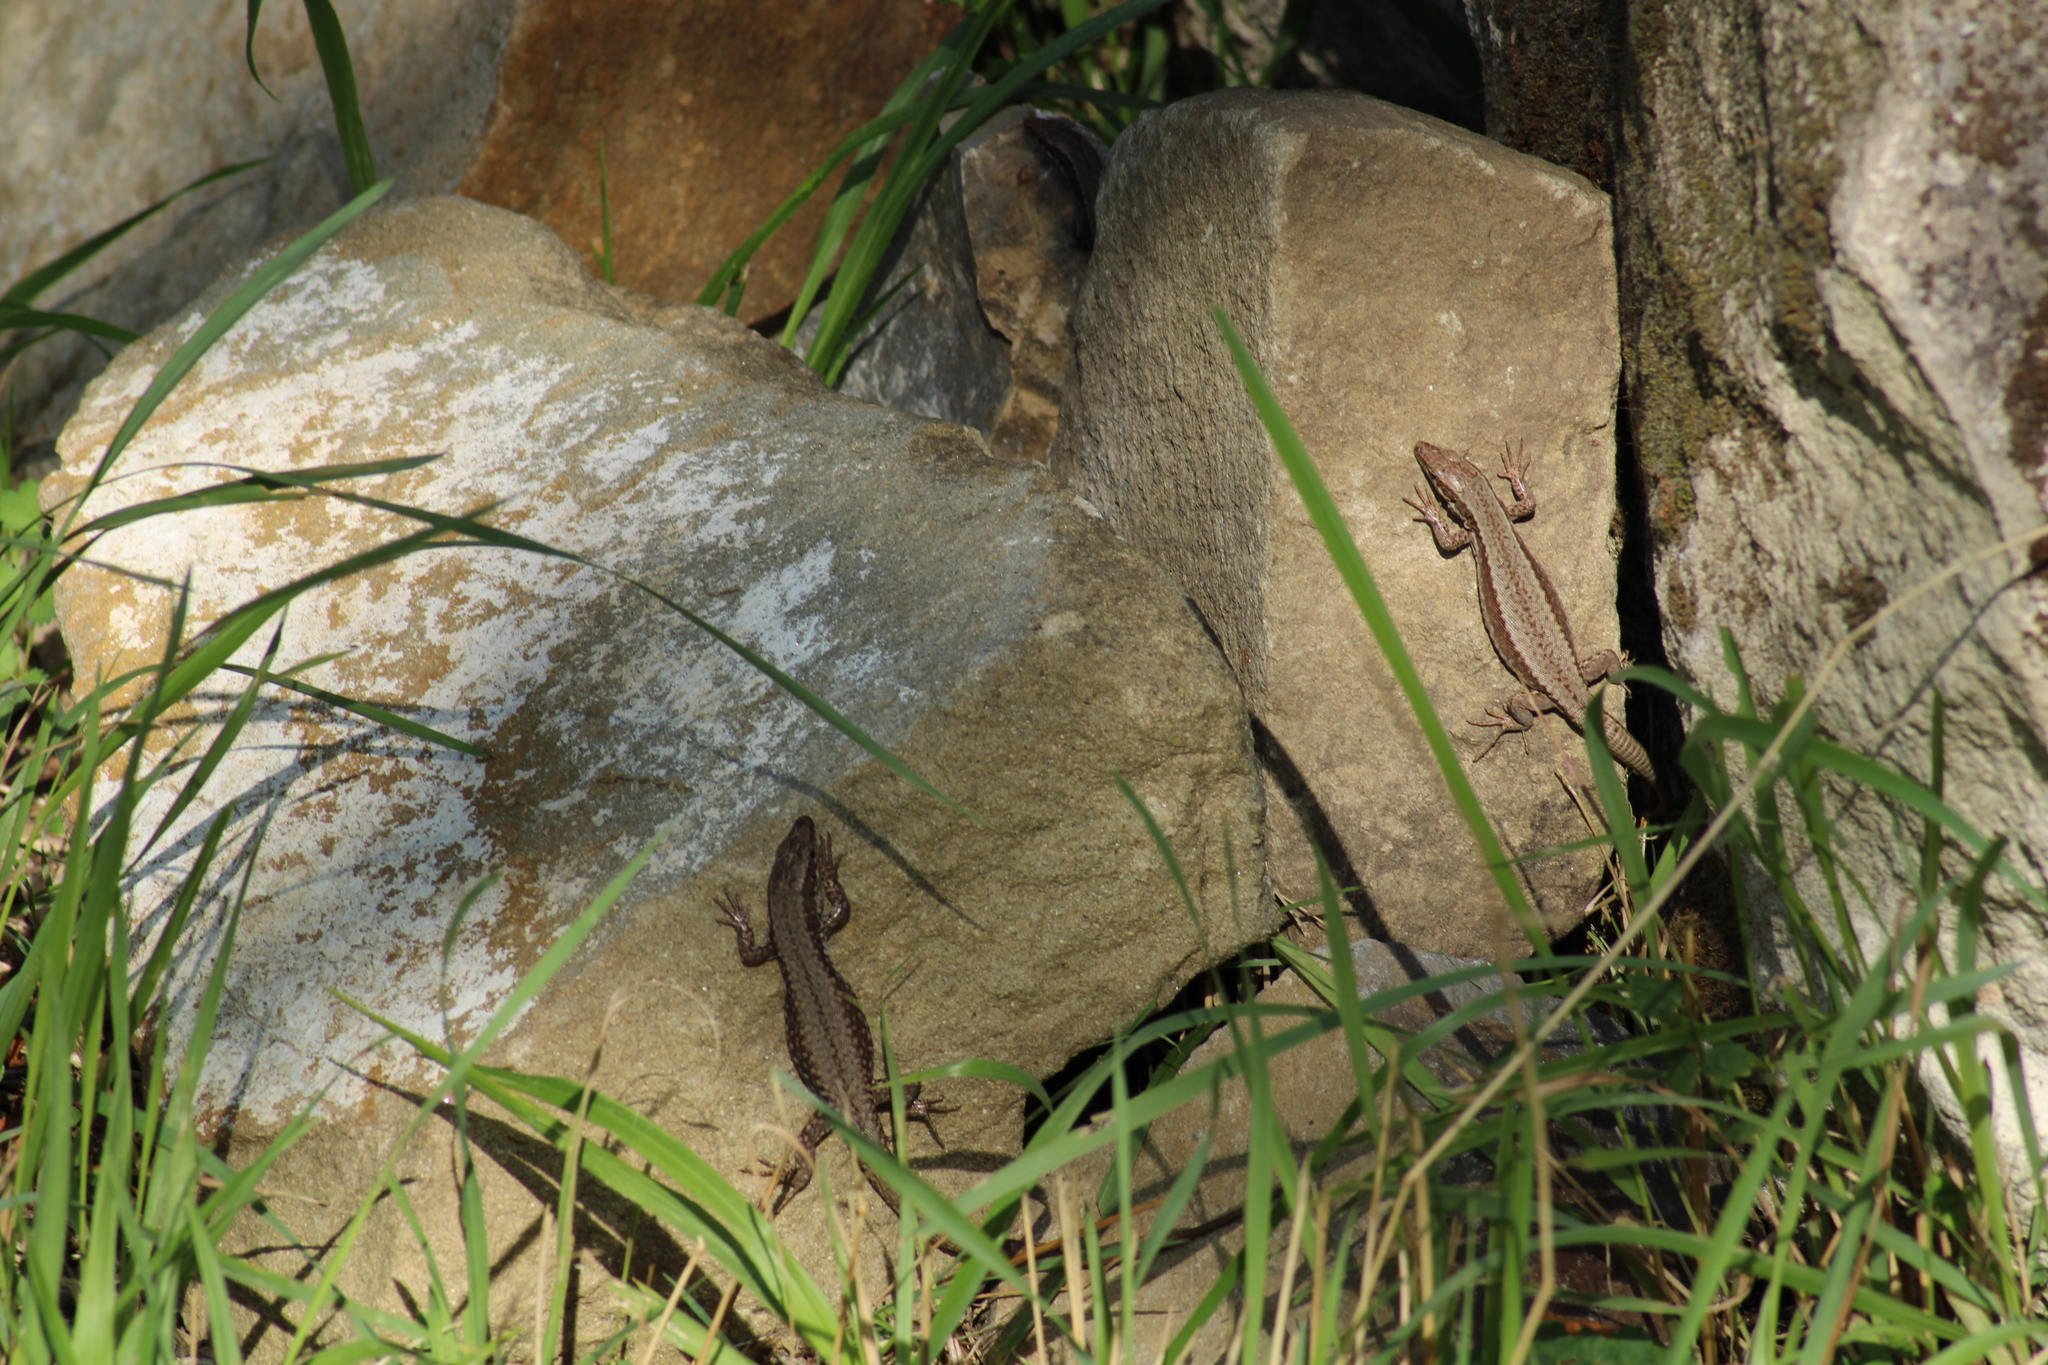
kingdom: Animalia
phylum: Chordata
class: Squamata
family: Lacertidae
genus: Podarcis
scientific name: Podarcis muralis
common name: Common wall lizard
